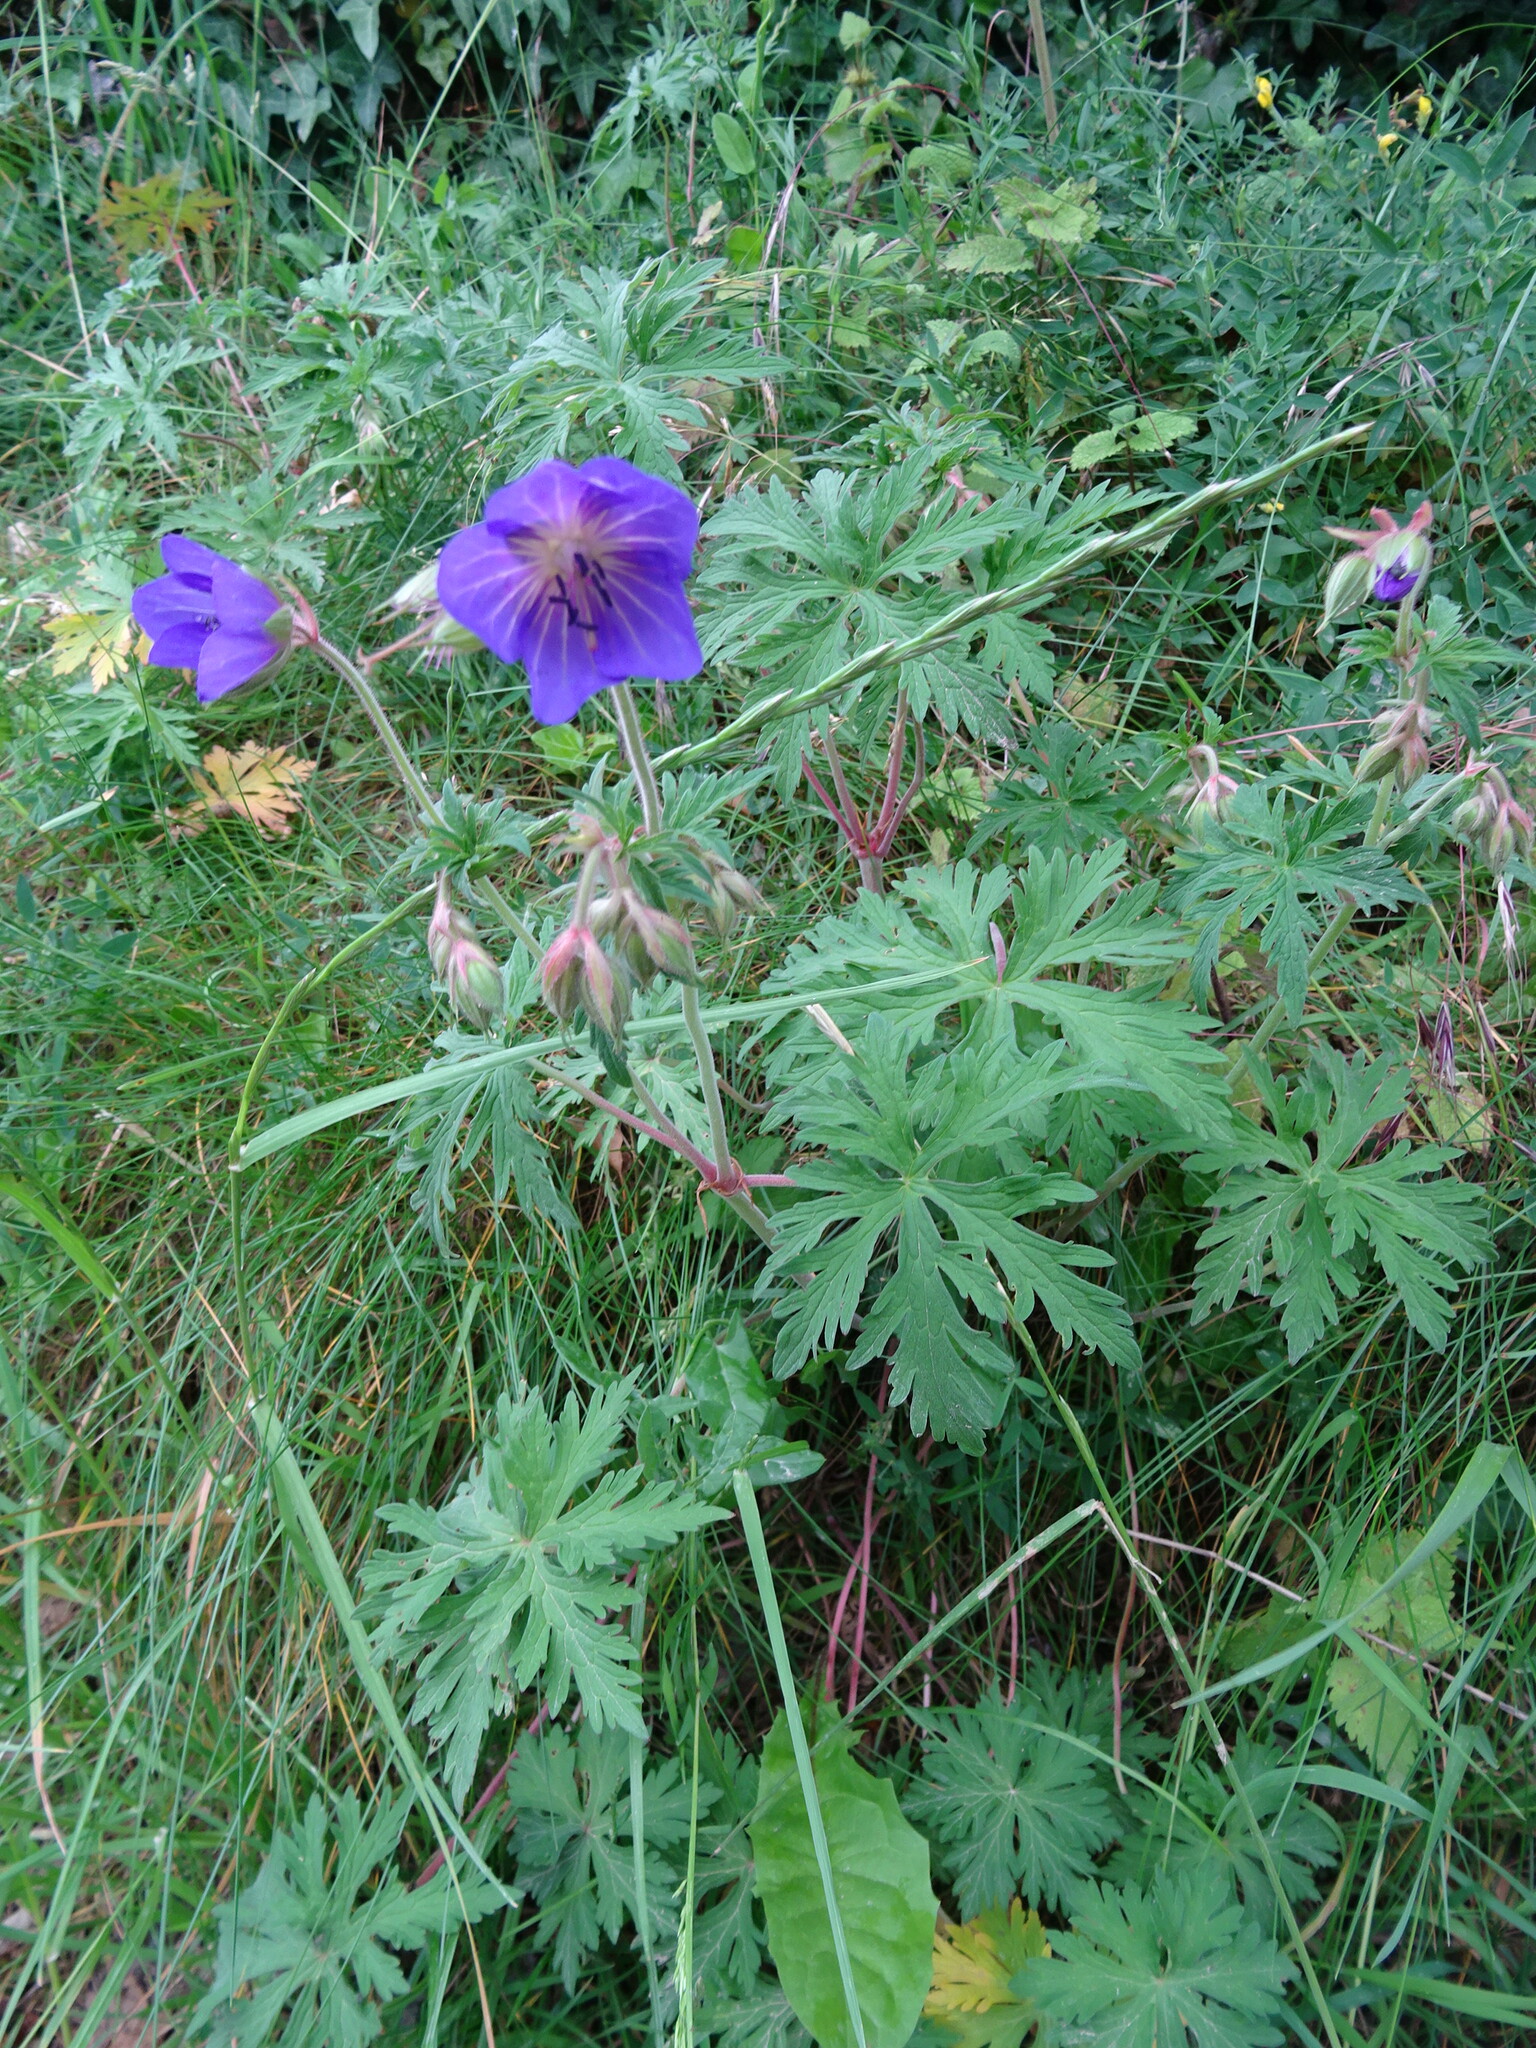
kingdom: Plantae
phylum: Tracheophyta
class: Magnoliopsida
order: Geraniales
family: Geraniaceae
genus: Geranium
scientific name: Geranium pratense
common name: Meadow crane's-bill
